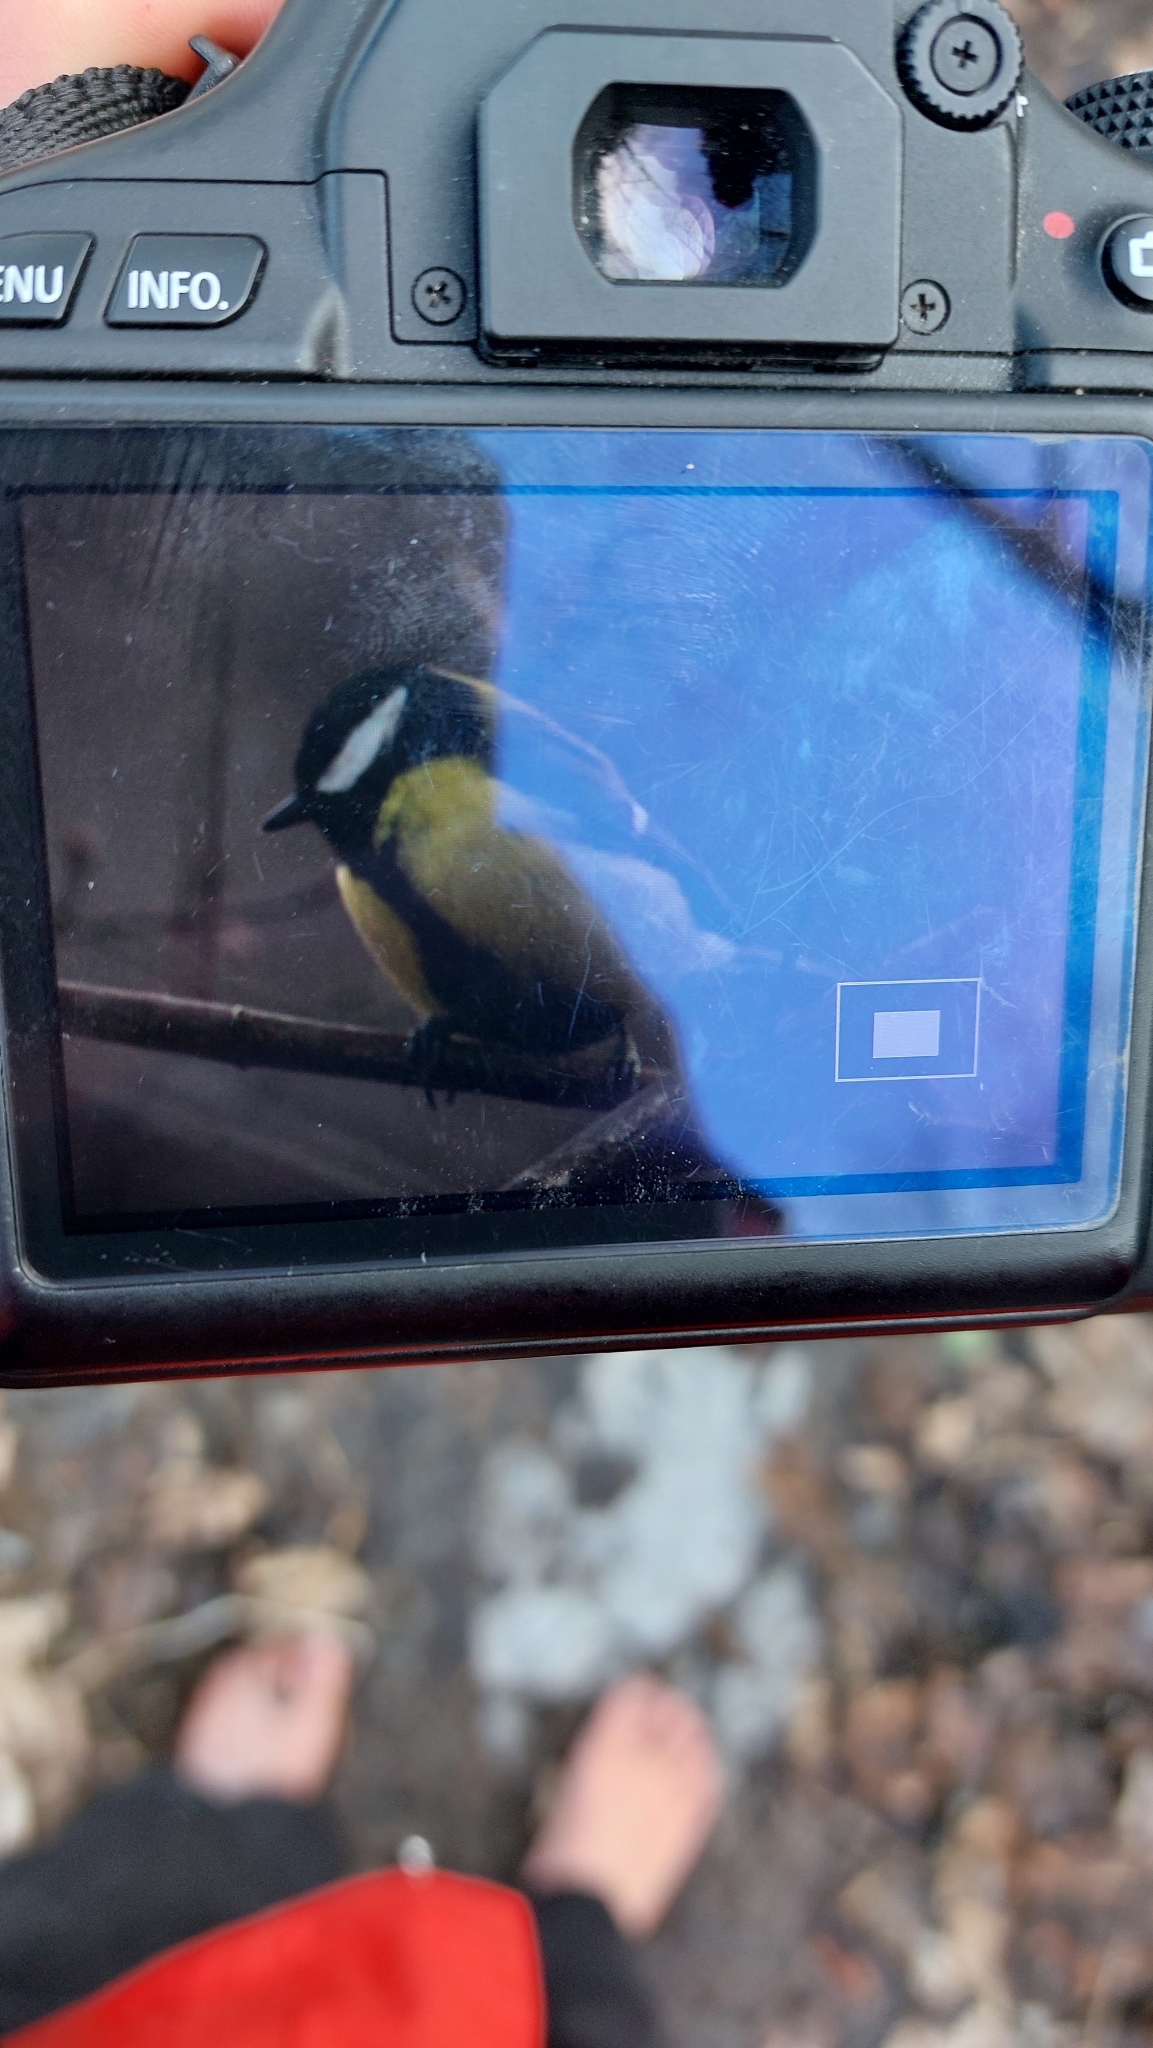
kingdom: Animalia
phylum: Chordata
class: Aves
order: Passeriformes
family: Paridae
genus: Parus
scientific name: Parus major
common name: Great tit
